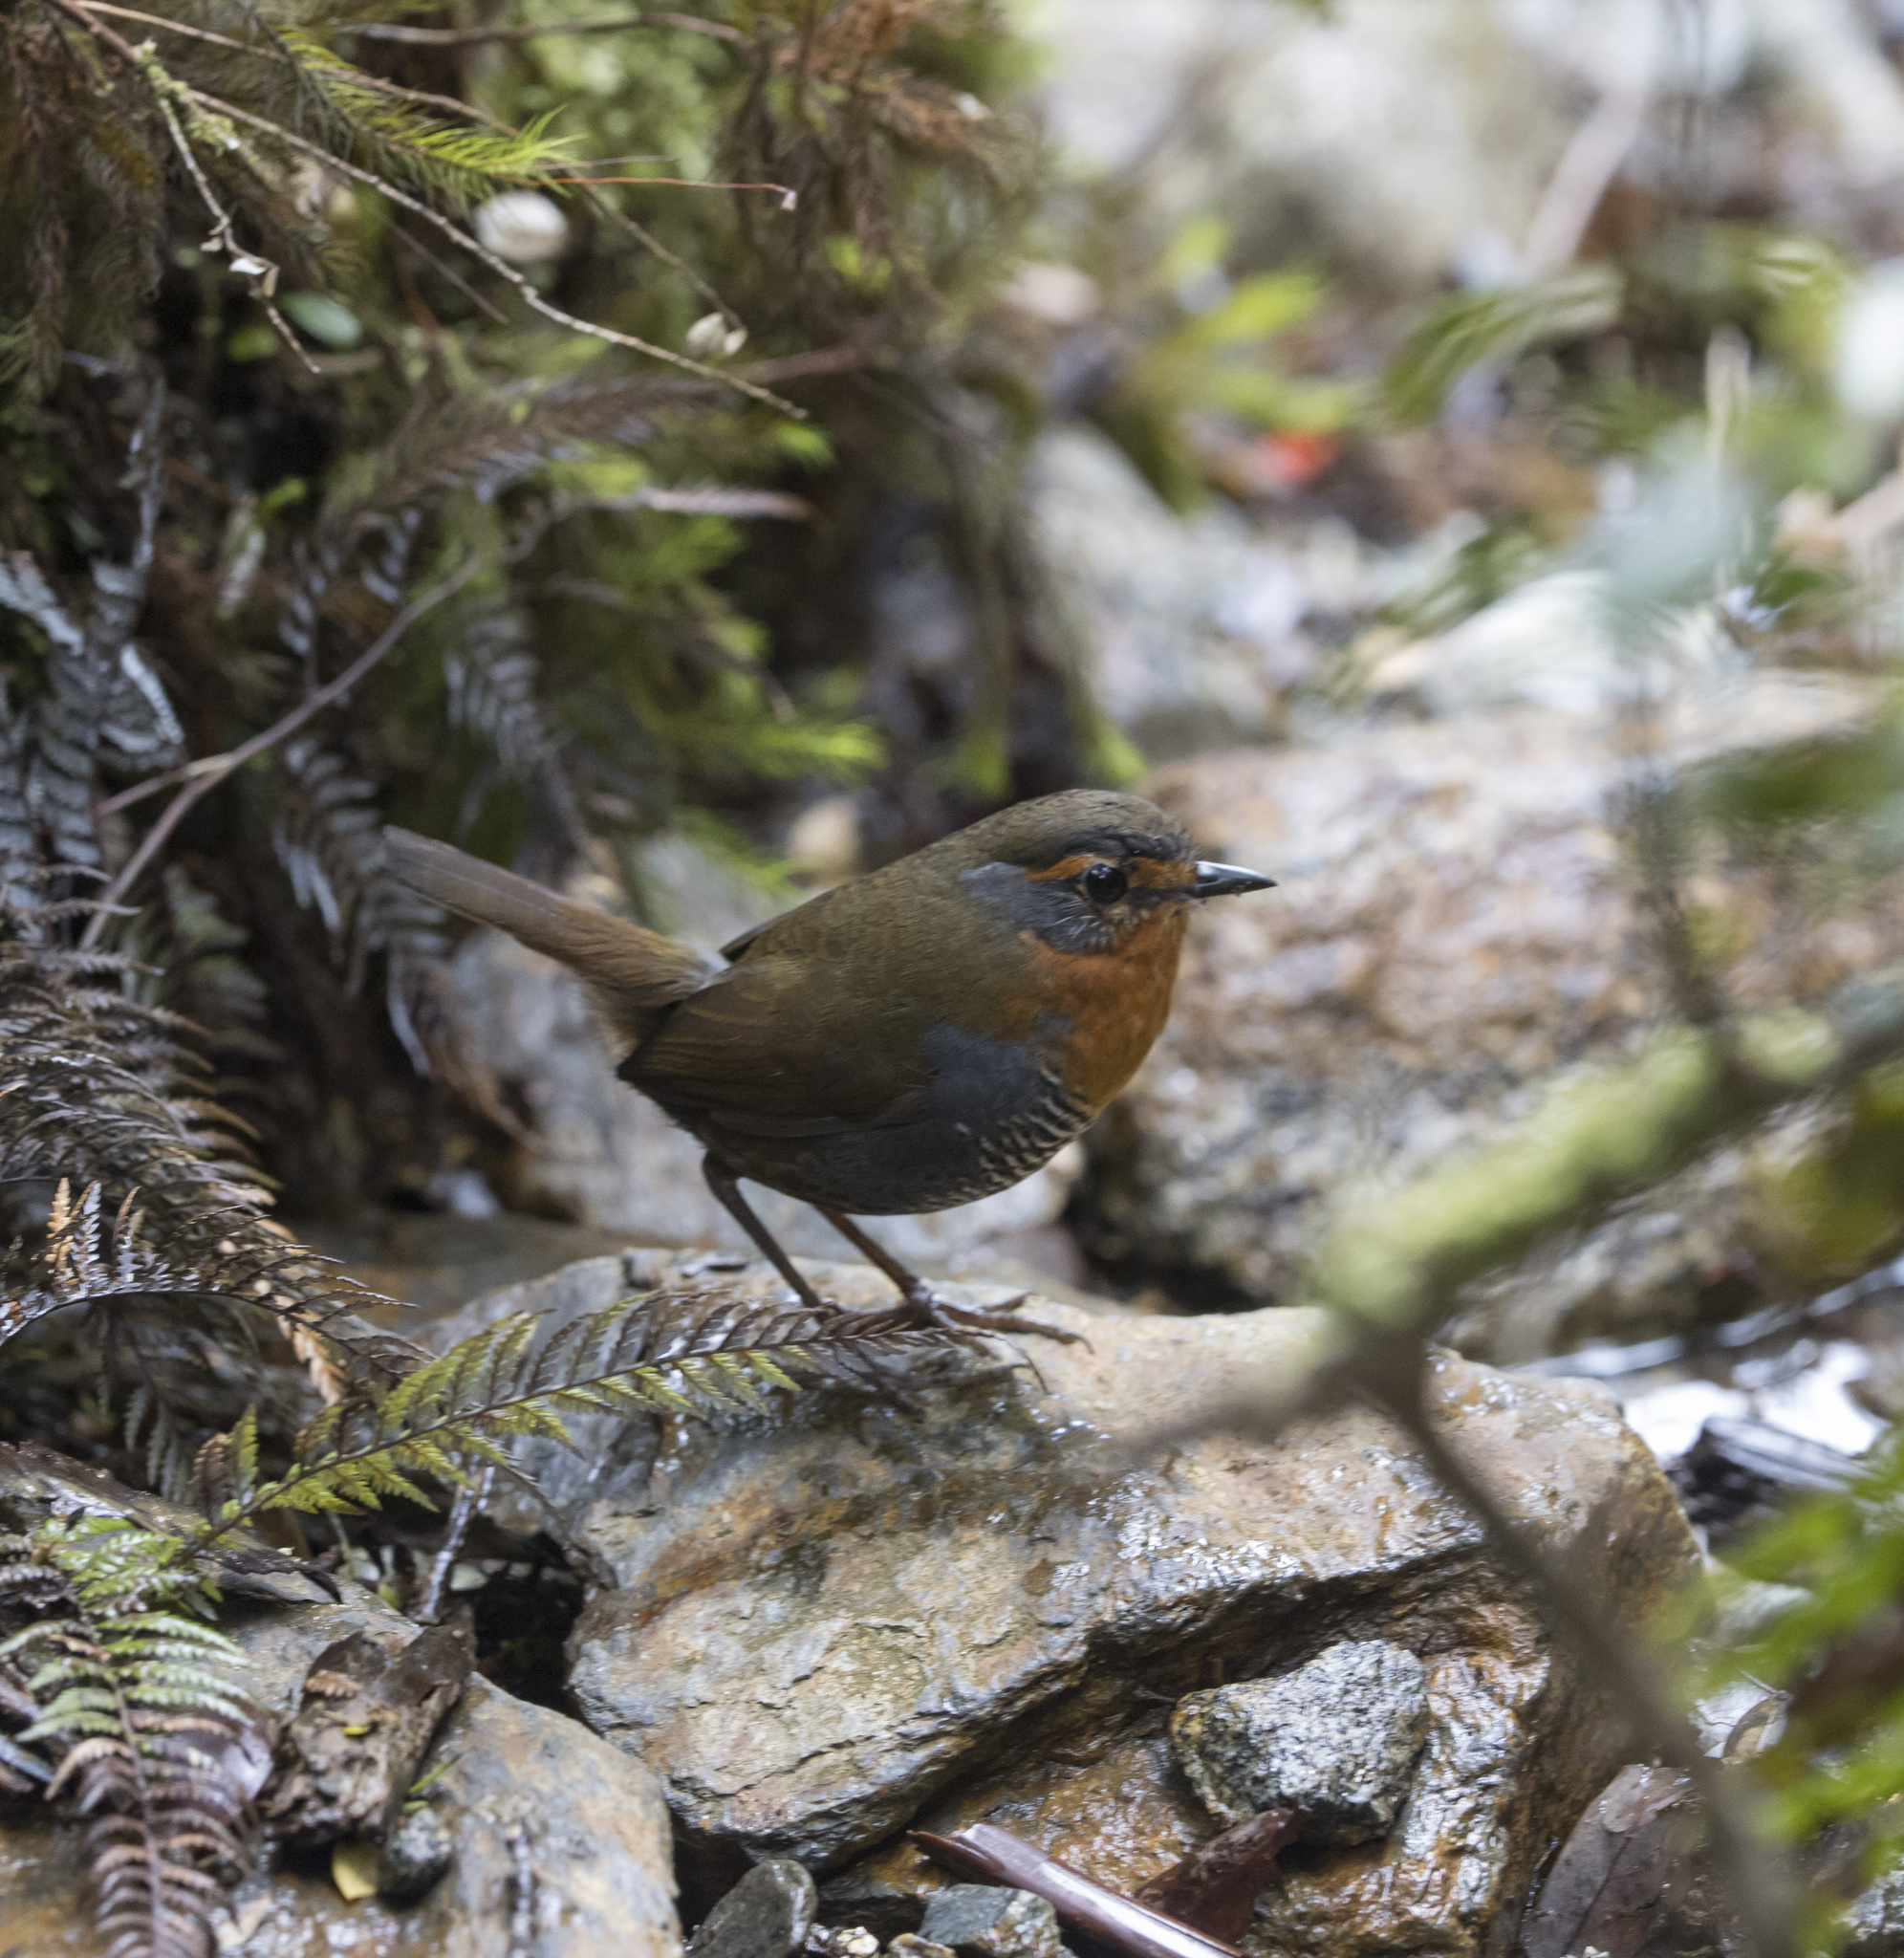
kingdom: Animalia
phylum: Chordata
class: Aves
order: Passeriformes
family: Rhinocryptidae
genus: Scelorchilus
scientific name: Scelorchilus rubecula
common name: Chucao tapaculo
